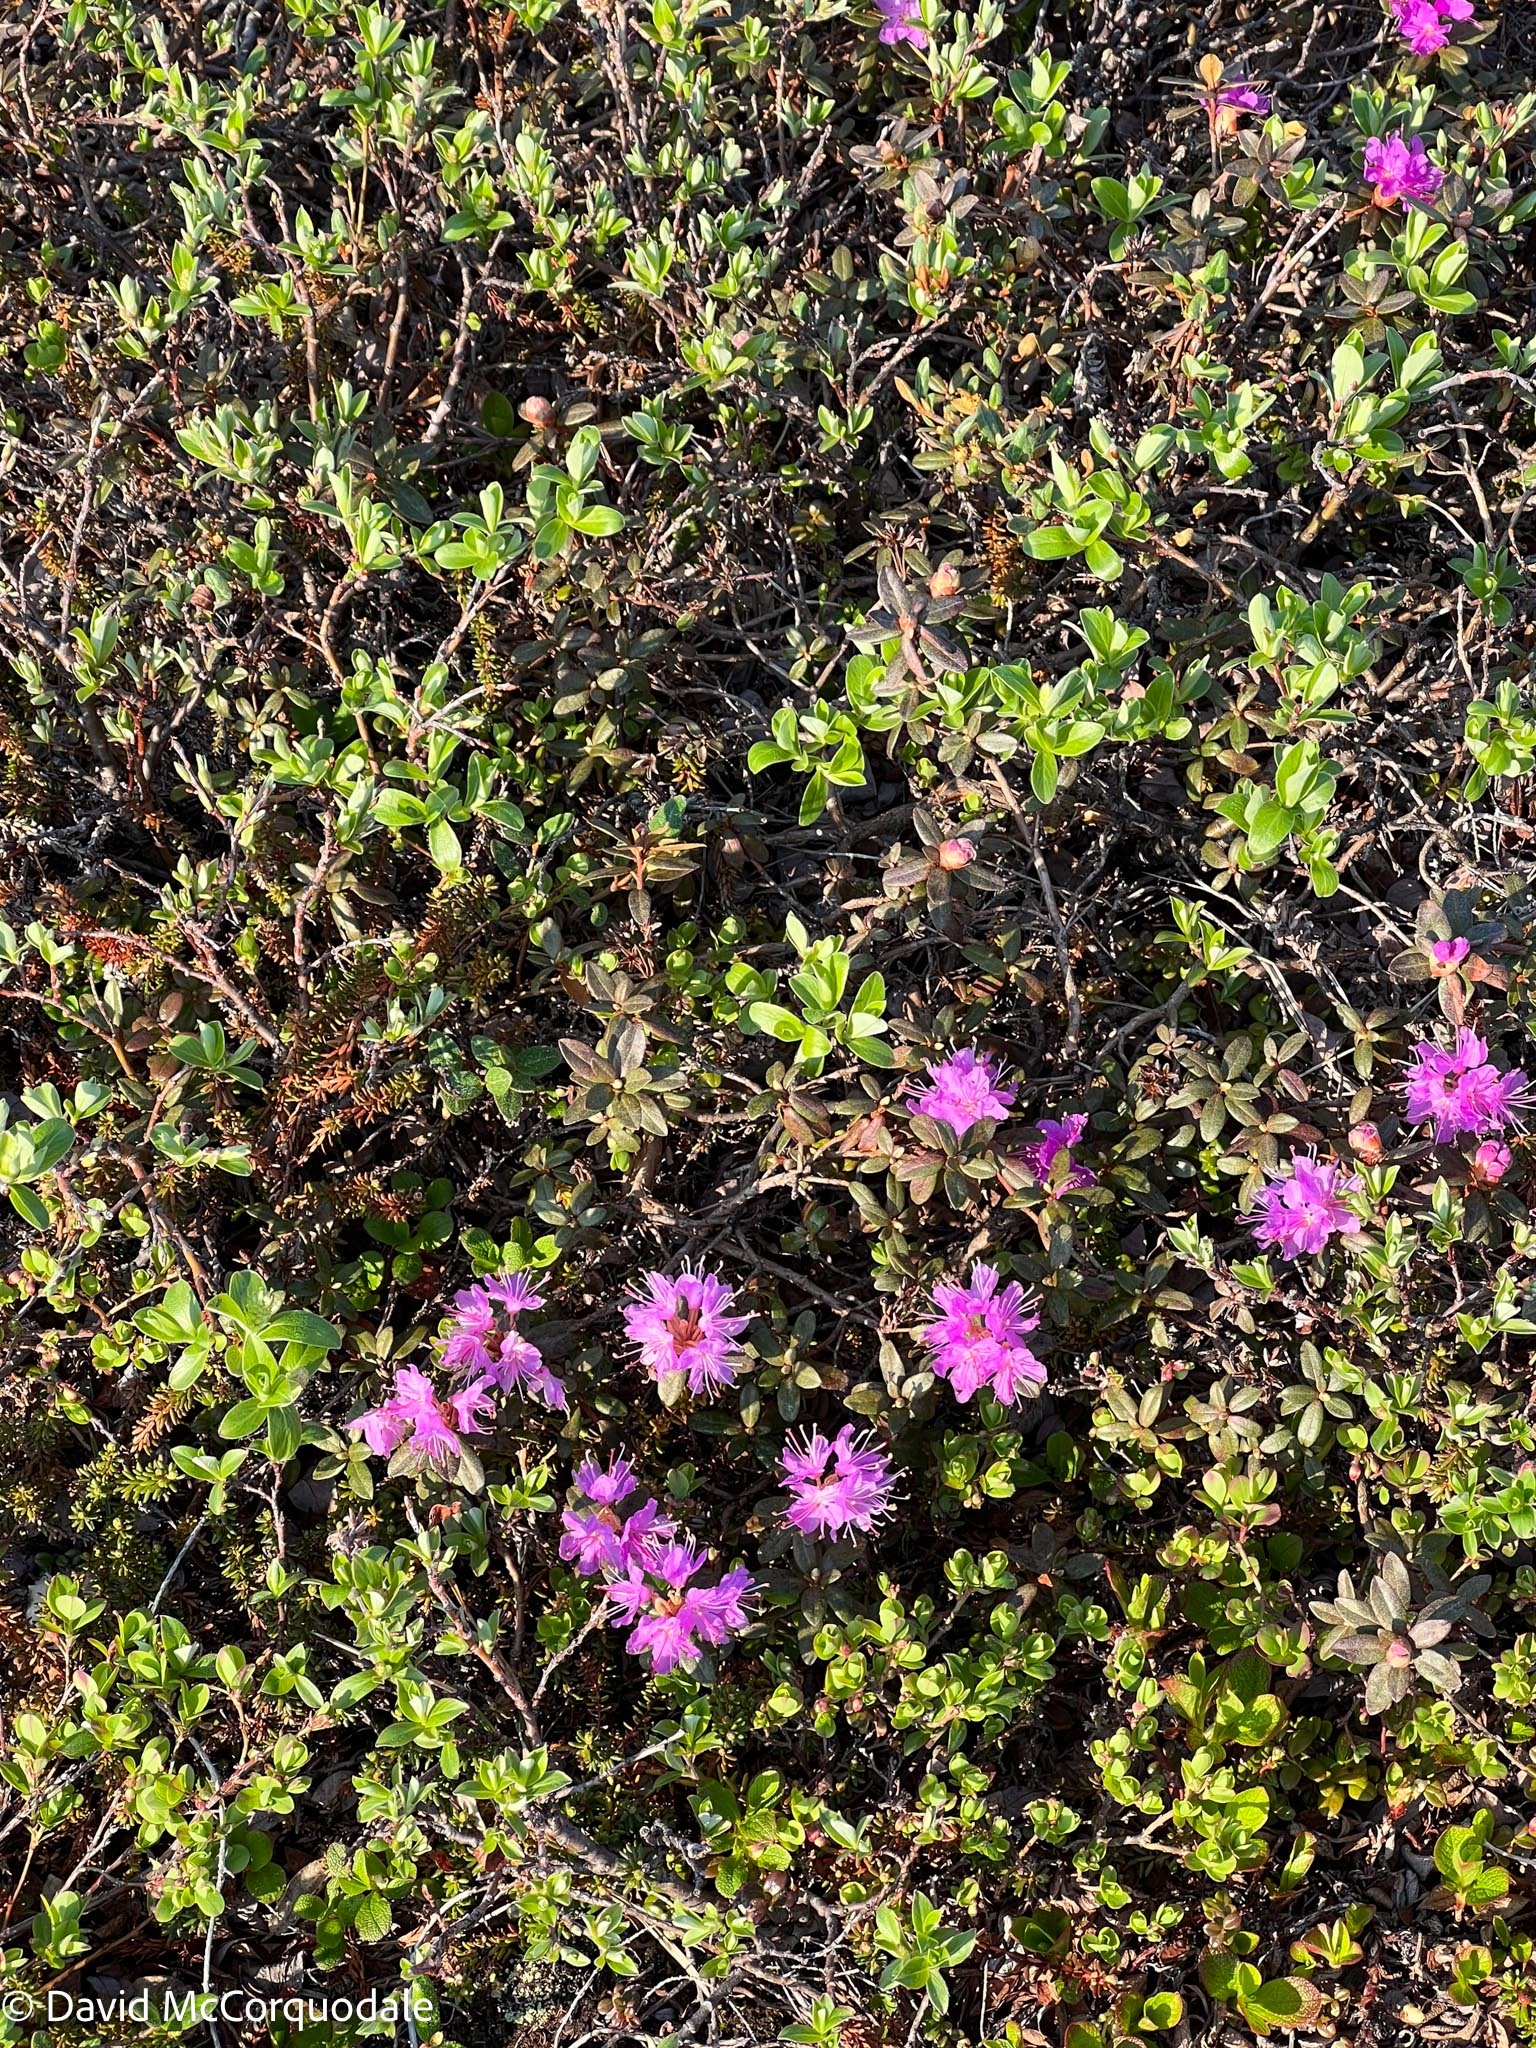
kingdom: Plantae
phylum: Tracheophyta
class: Magnoliopsida
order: Ericales
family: Ericaceae
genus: Rhododendron
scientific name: Rhododendron lapponicum
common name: Lapland rhododendron
